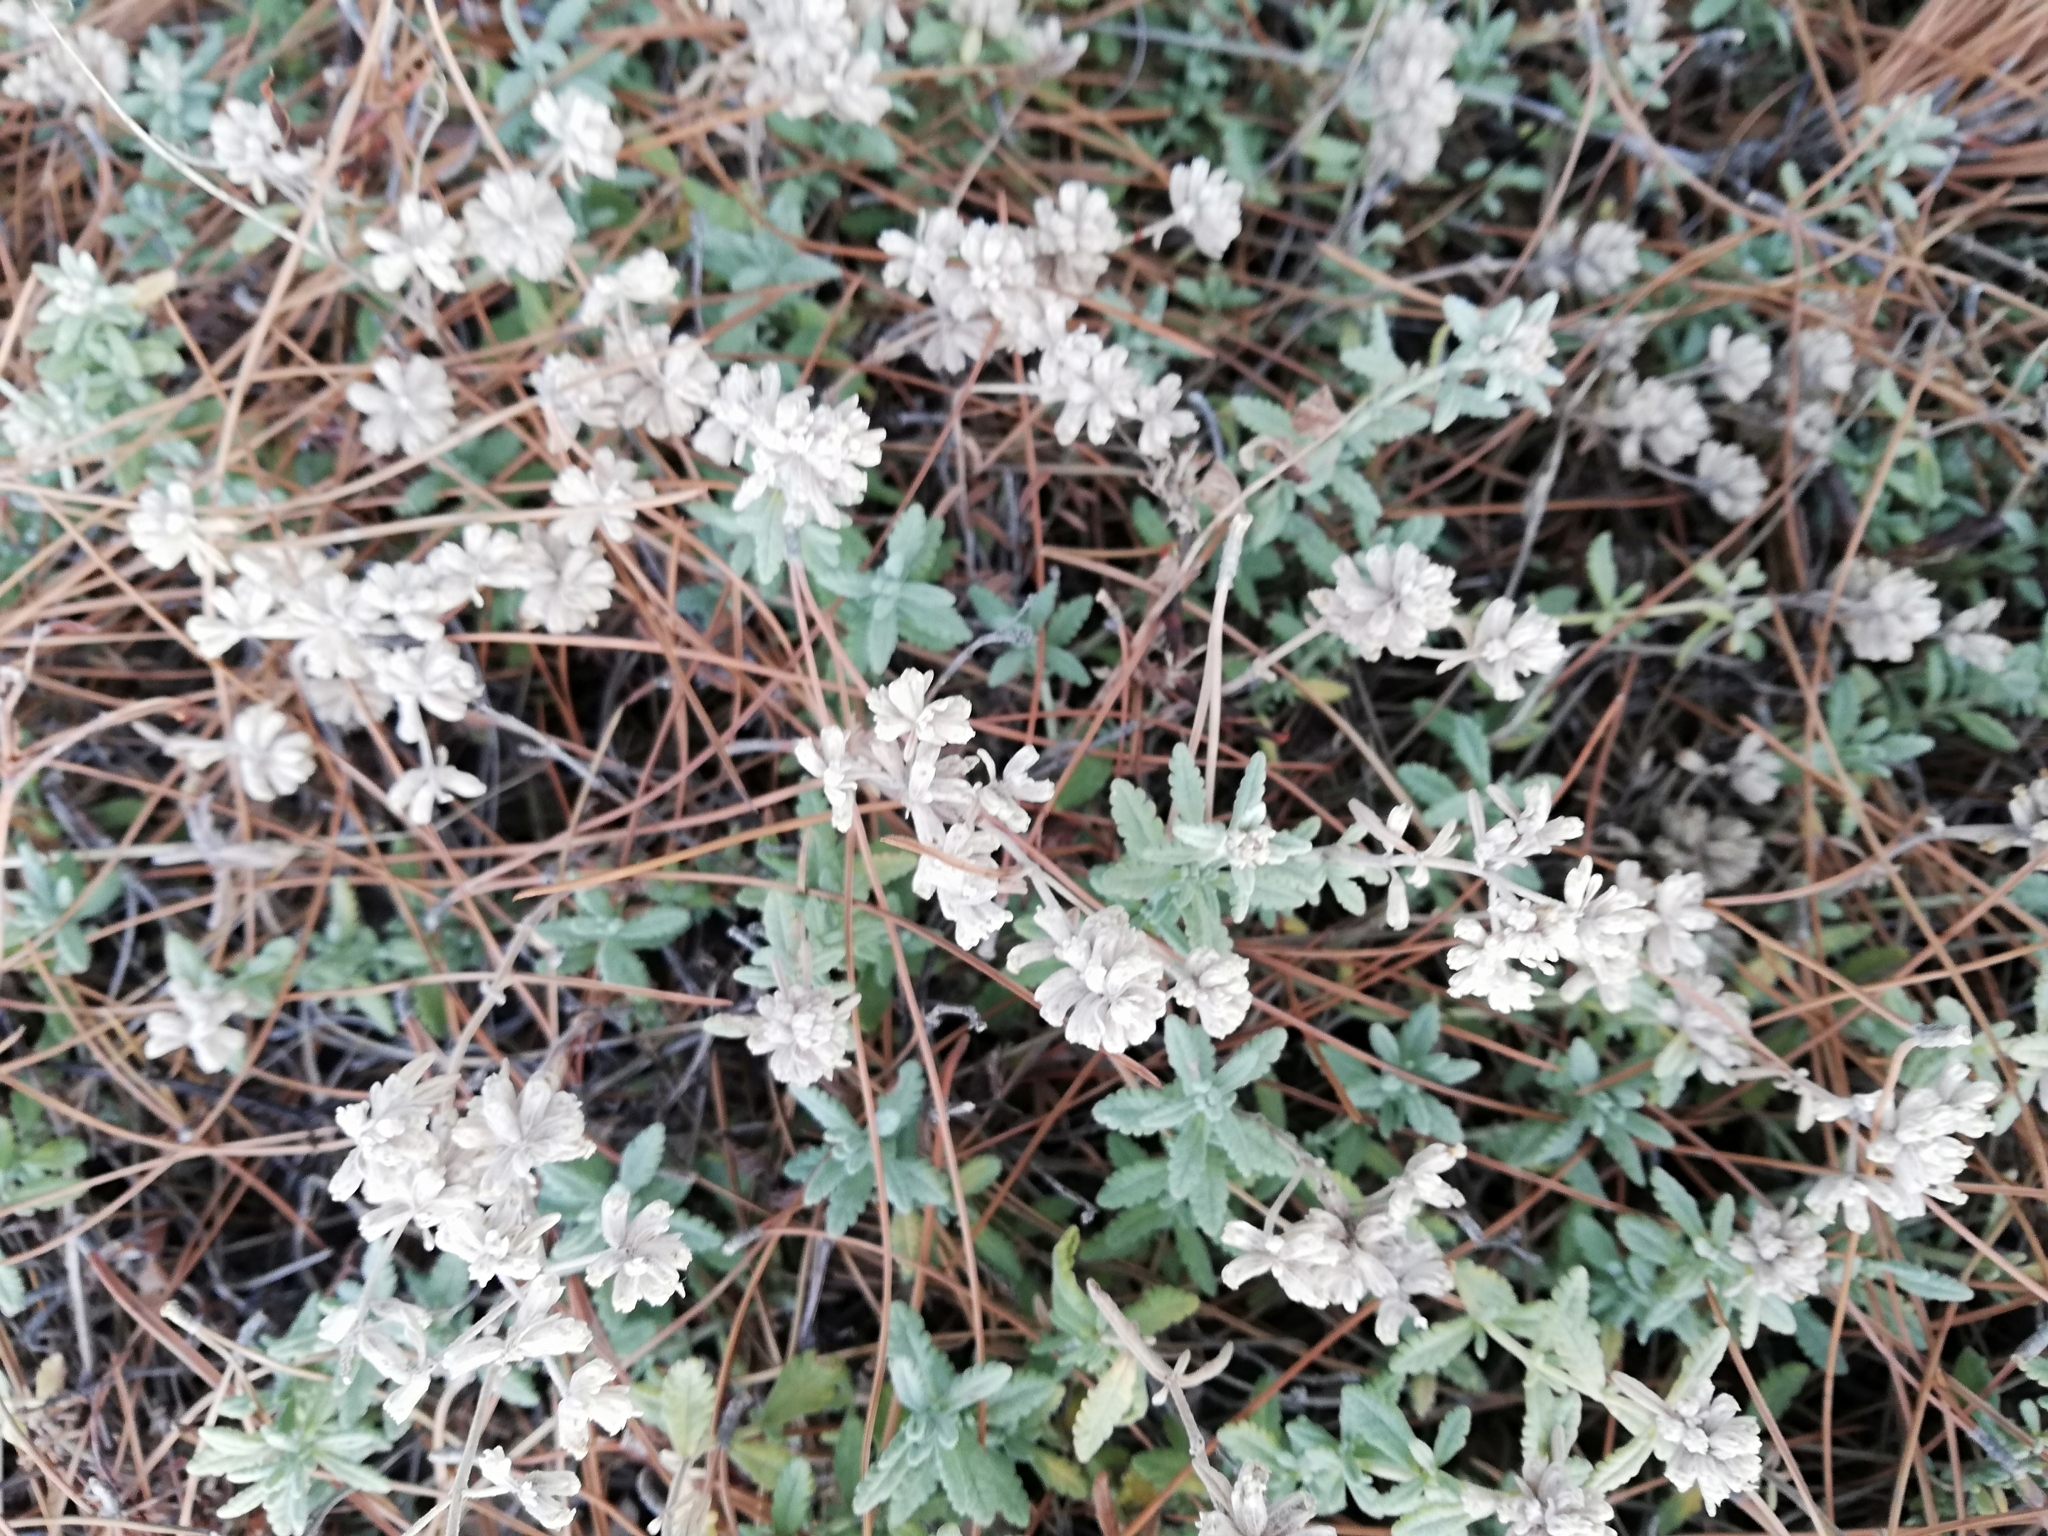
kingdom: Plantae
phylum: Tracheophyta
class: Magnoliopsida
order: Lamiales
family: Lamiaceae
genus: Teucrium
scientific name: Teucrium polium
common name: Poley
